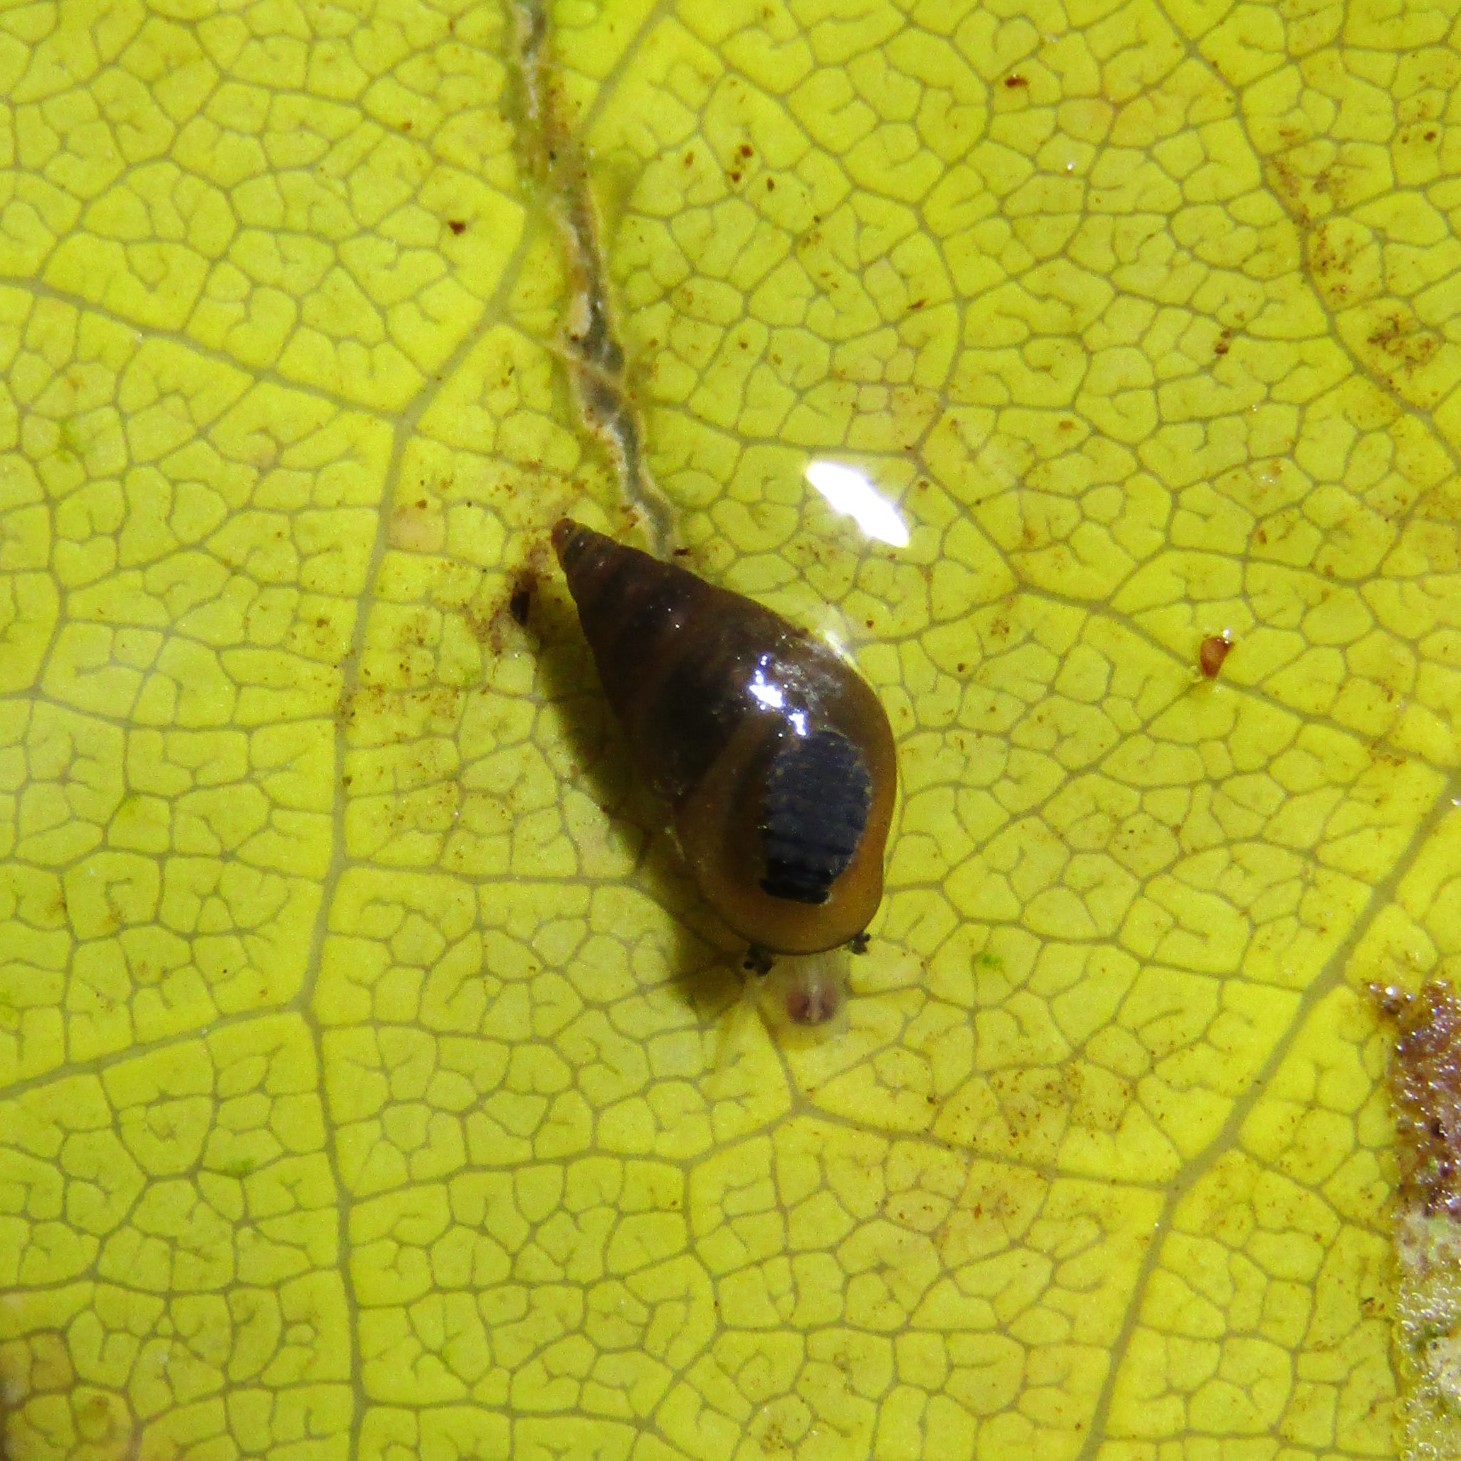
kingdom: Animalia
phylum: Mollusca
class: Gastropoda
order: Littorinimorpha
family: Tateidae
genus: Potamopyrgus
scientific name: Potamopyrgus antipodarum
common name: Jenkins' spire snail
